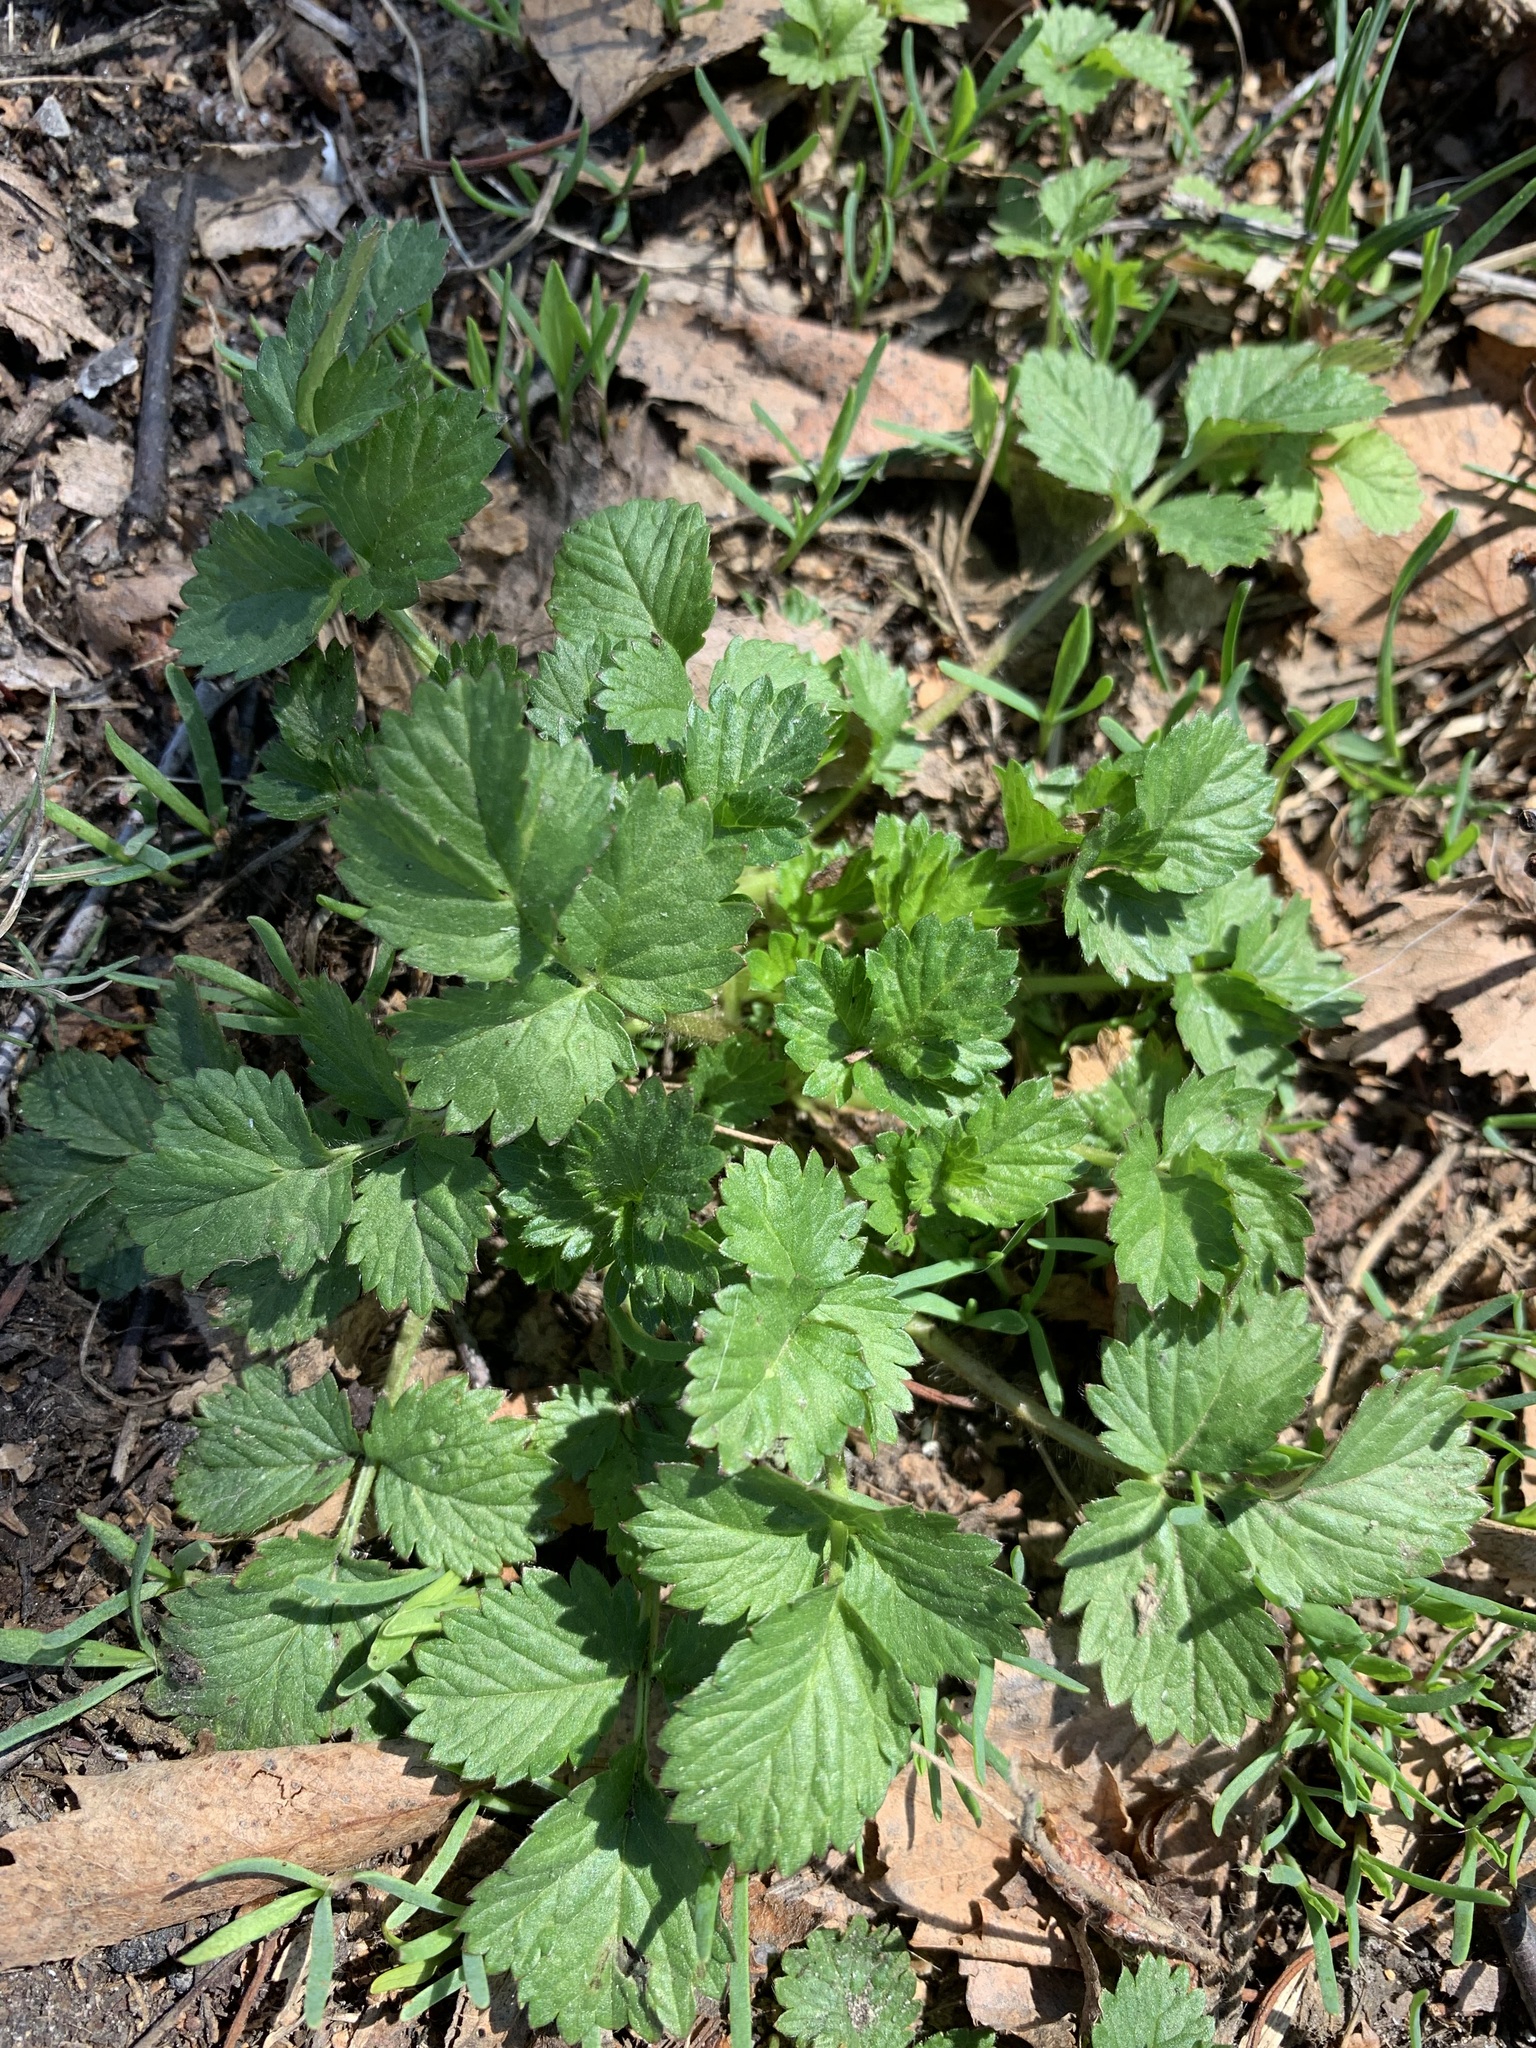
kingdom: Plantae
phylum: Tracheophyta
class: Magnoliopsida
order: Rosales
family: Rosaceae
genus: Potentilla
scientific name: Potentilla norvegica
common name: Ternate-leaved cinquefoil
